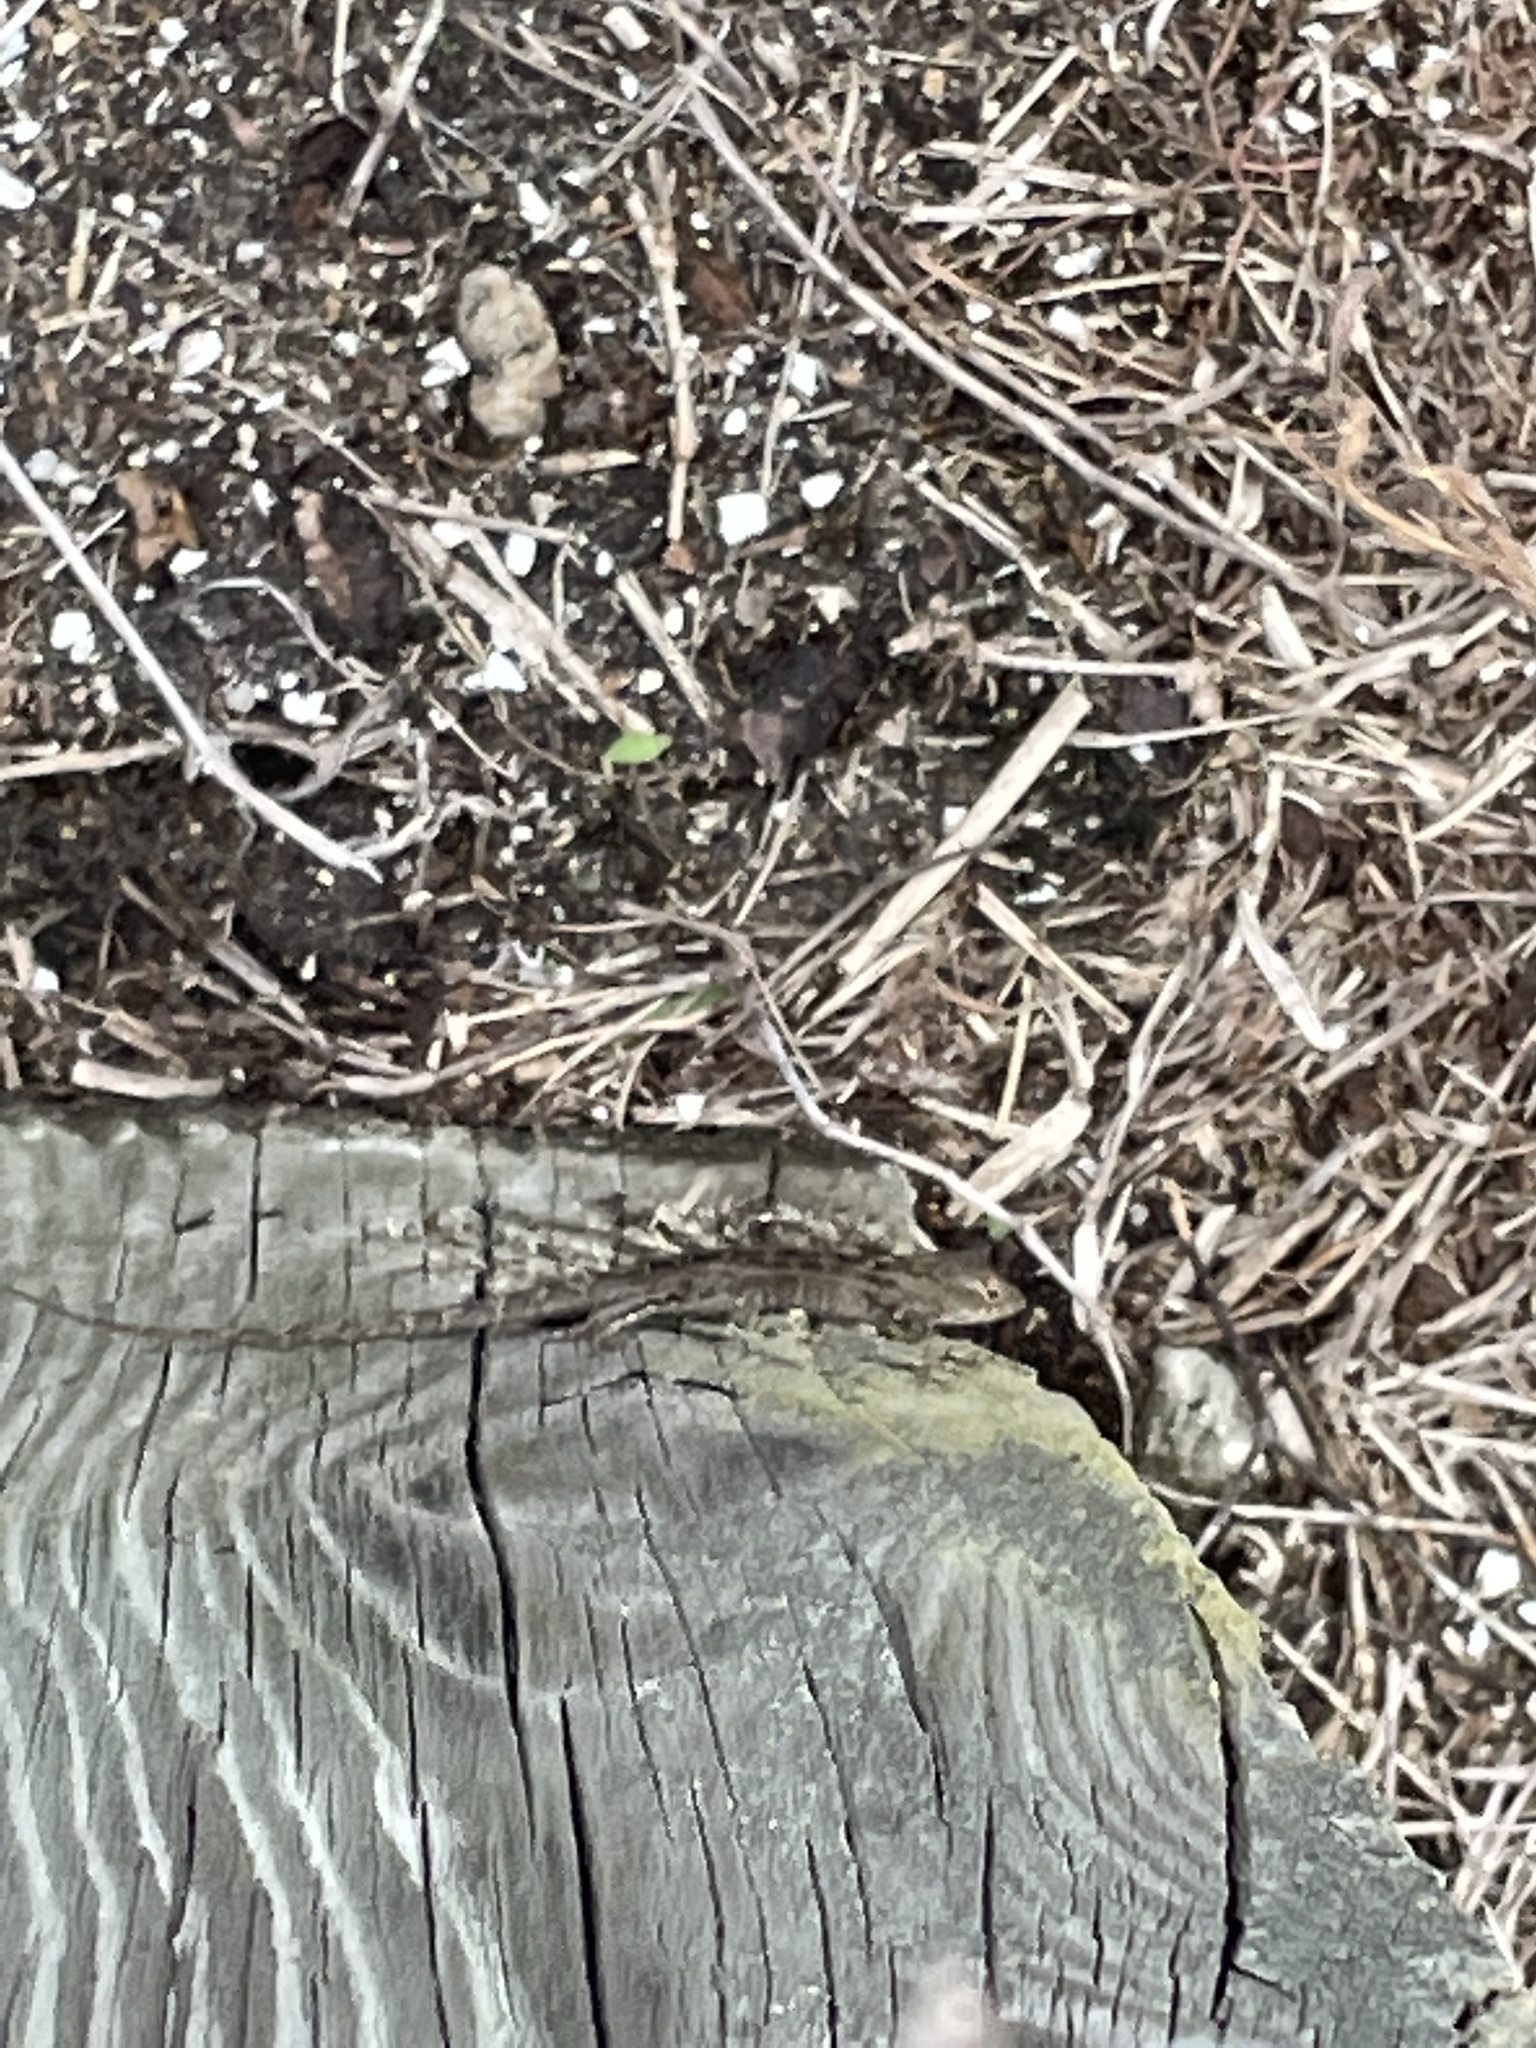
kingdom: Animalia
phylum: Chordata
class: Squamata
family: Dactyloidae
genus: Anolis
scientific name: Anolis sagrei
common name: Brown anole
